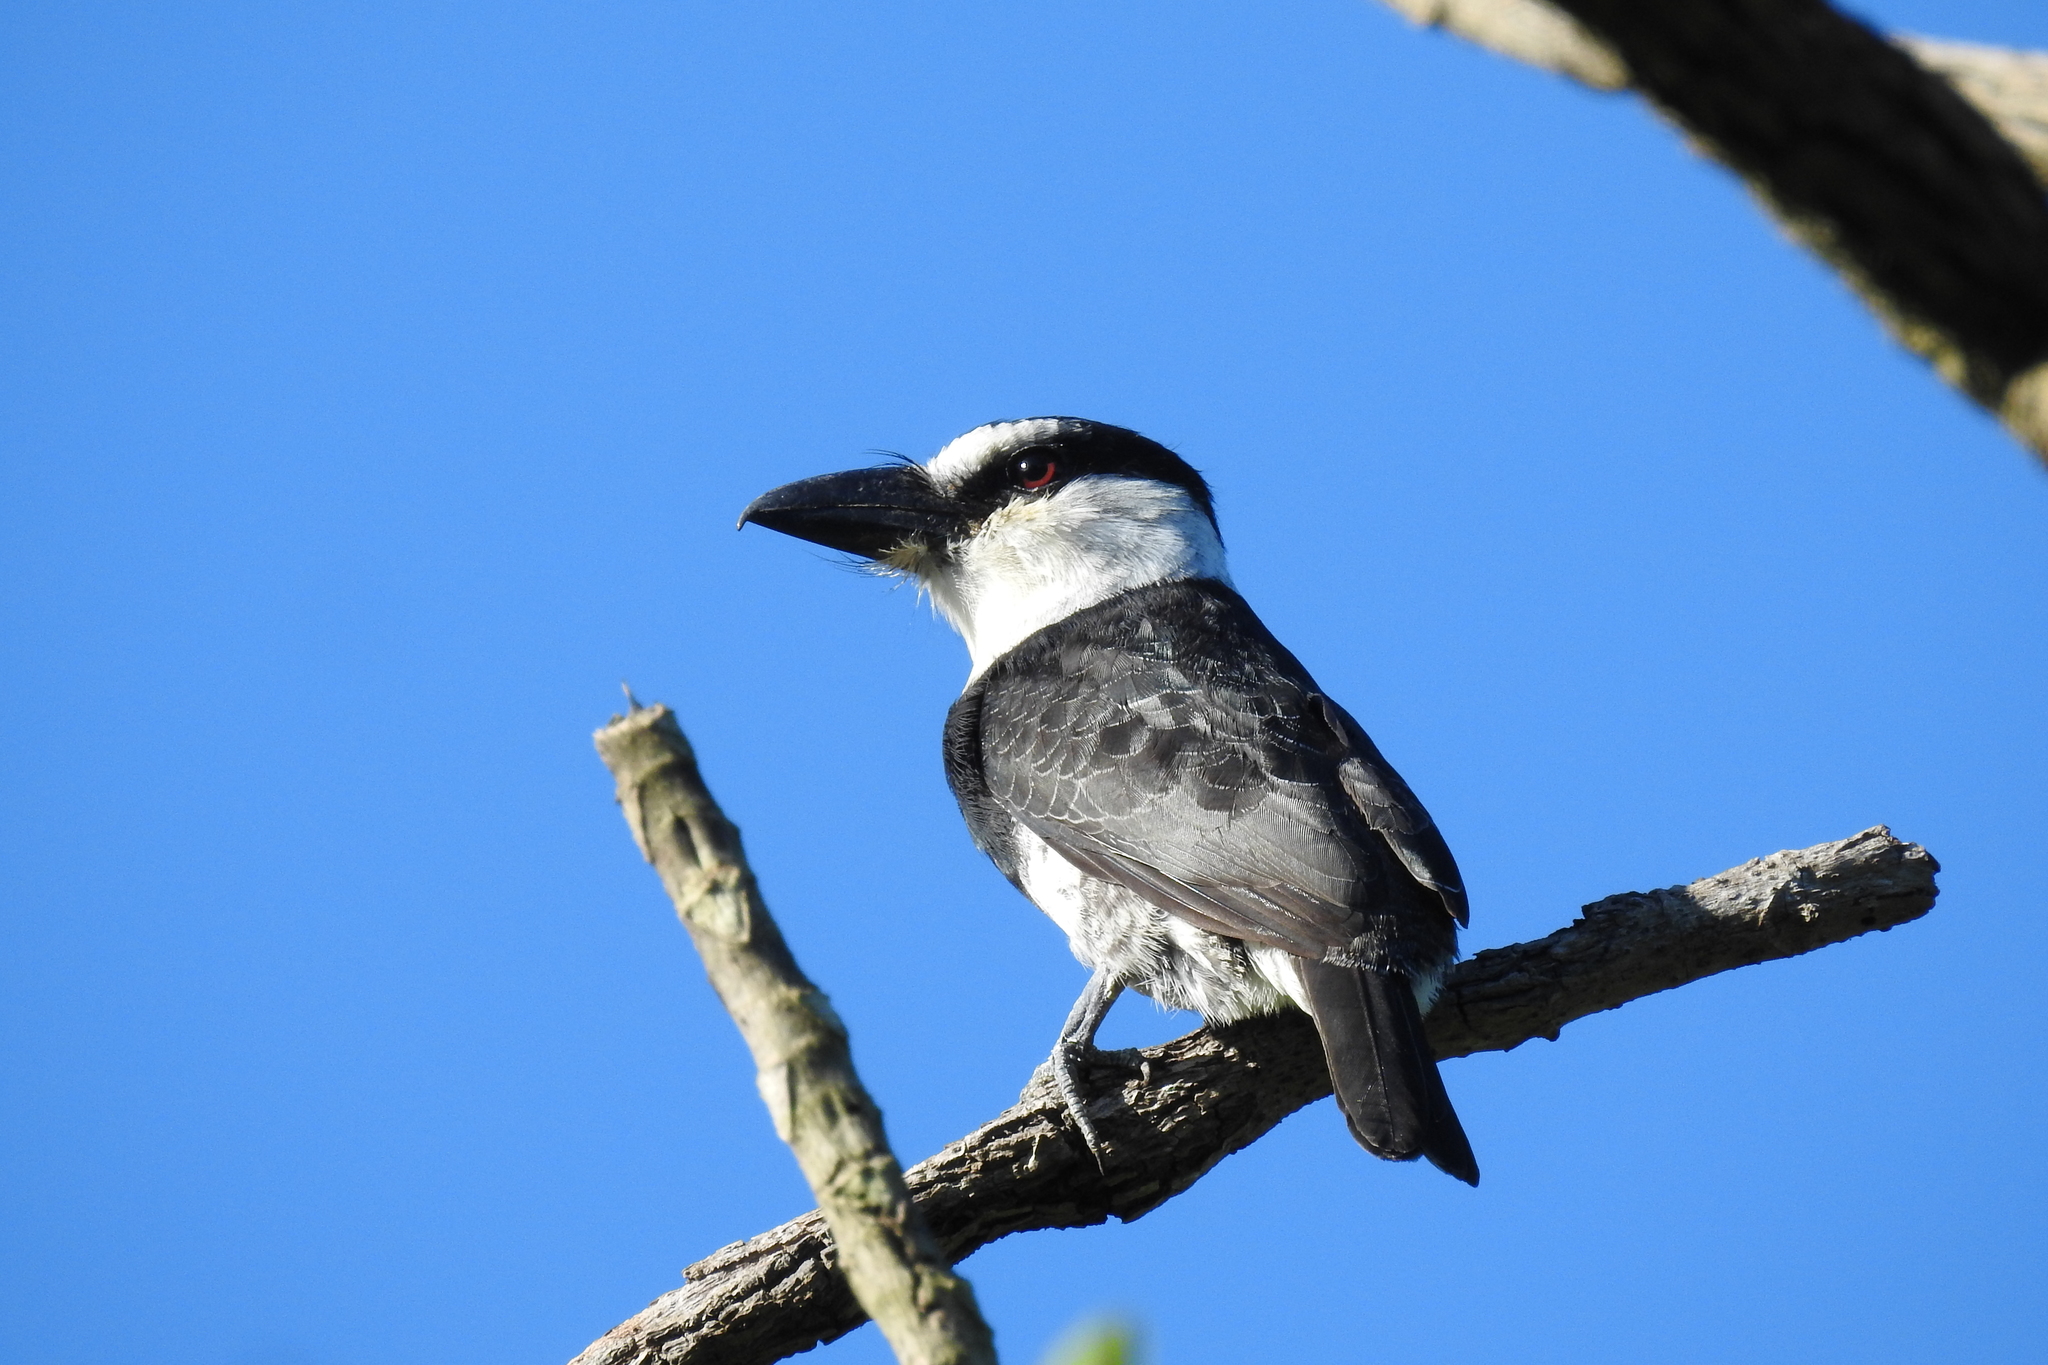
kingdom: Animalia
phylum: Chordata
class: Aves
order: Piciformes
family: Bucconidae
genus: Notharchus
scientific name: Notharchus hyperrhynchus
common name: White-necked puffbird
